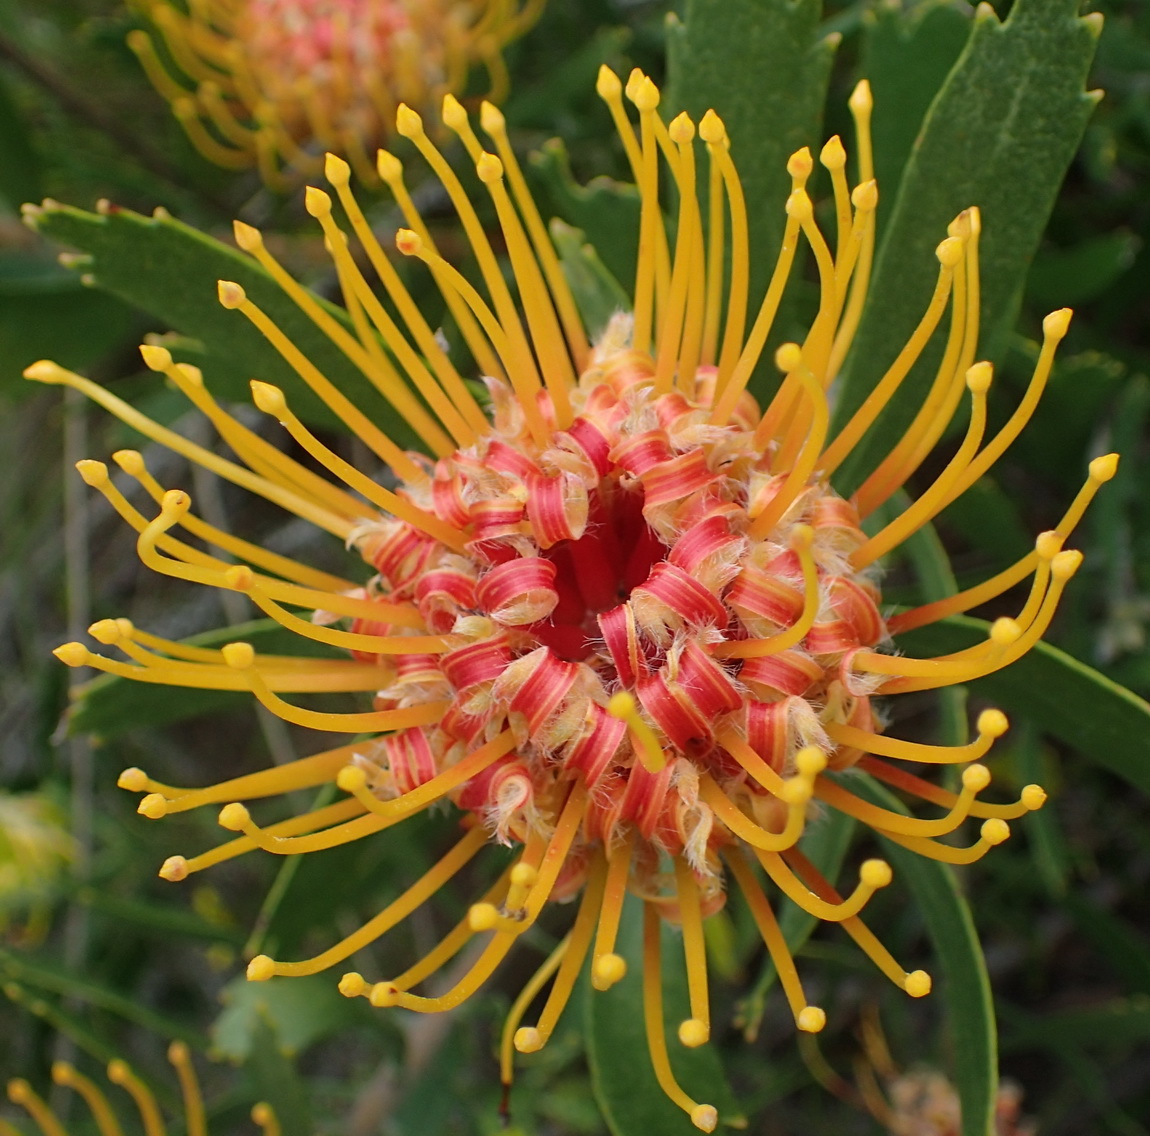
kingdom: Plantae
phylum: Tracheophyta
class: Magnoliopsida
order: Proteales
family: Proteaceae
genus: Leucospermum
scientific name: Leucospermum cuneiforme
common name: Common pincushion
